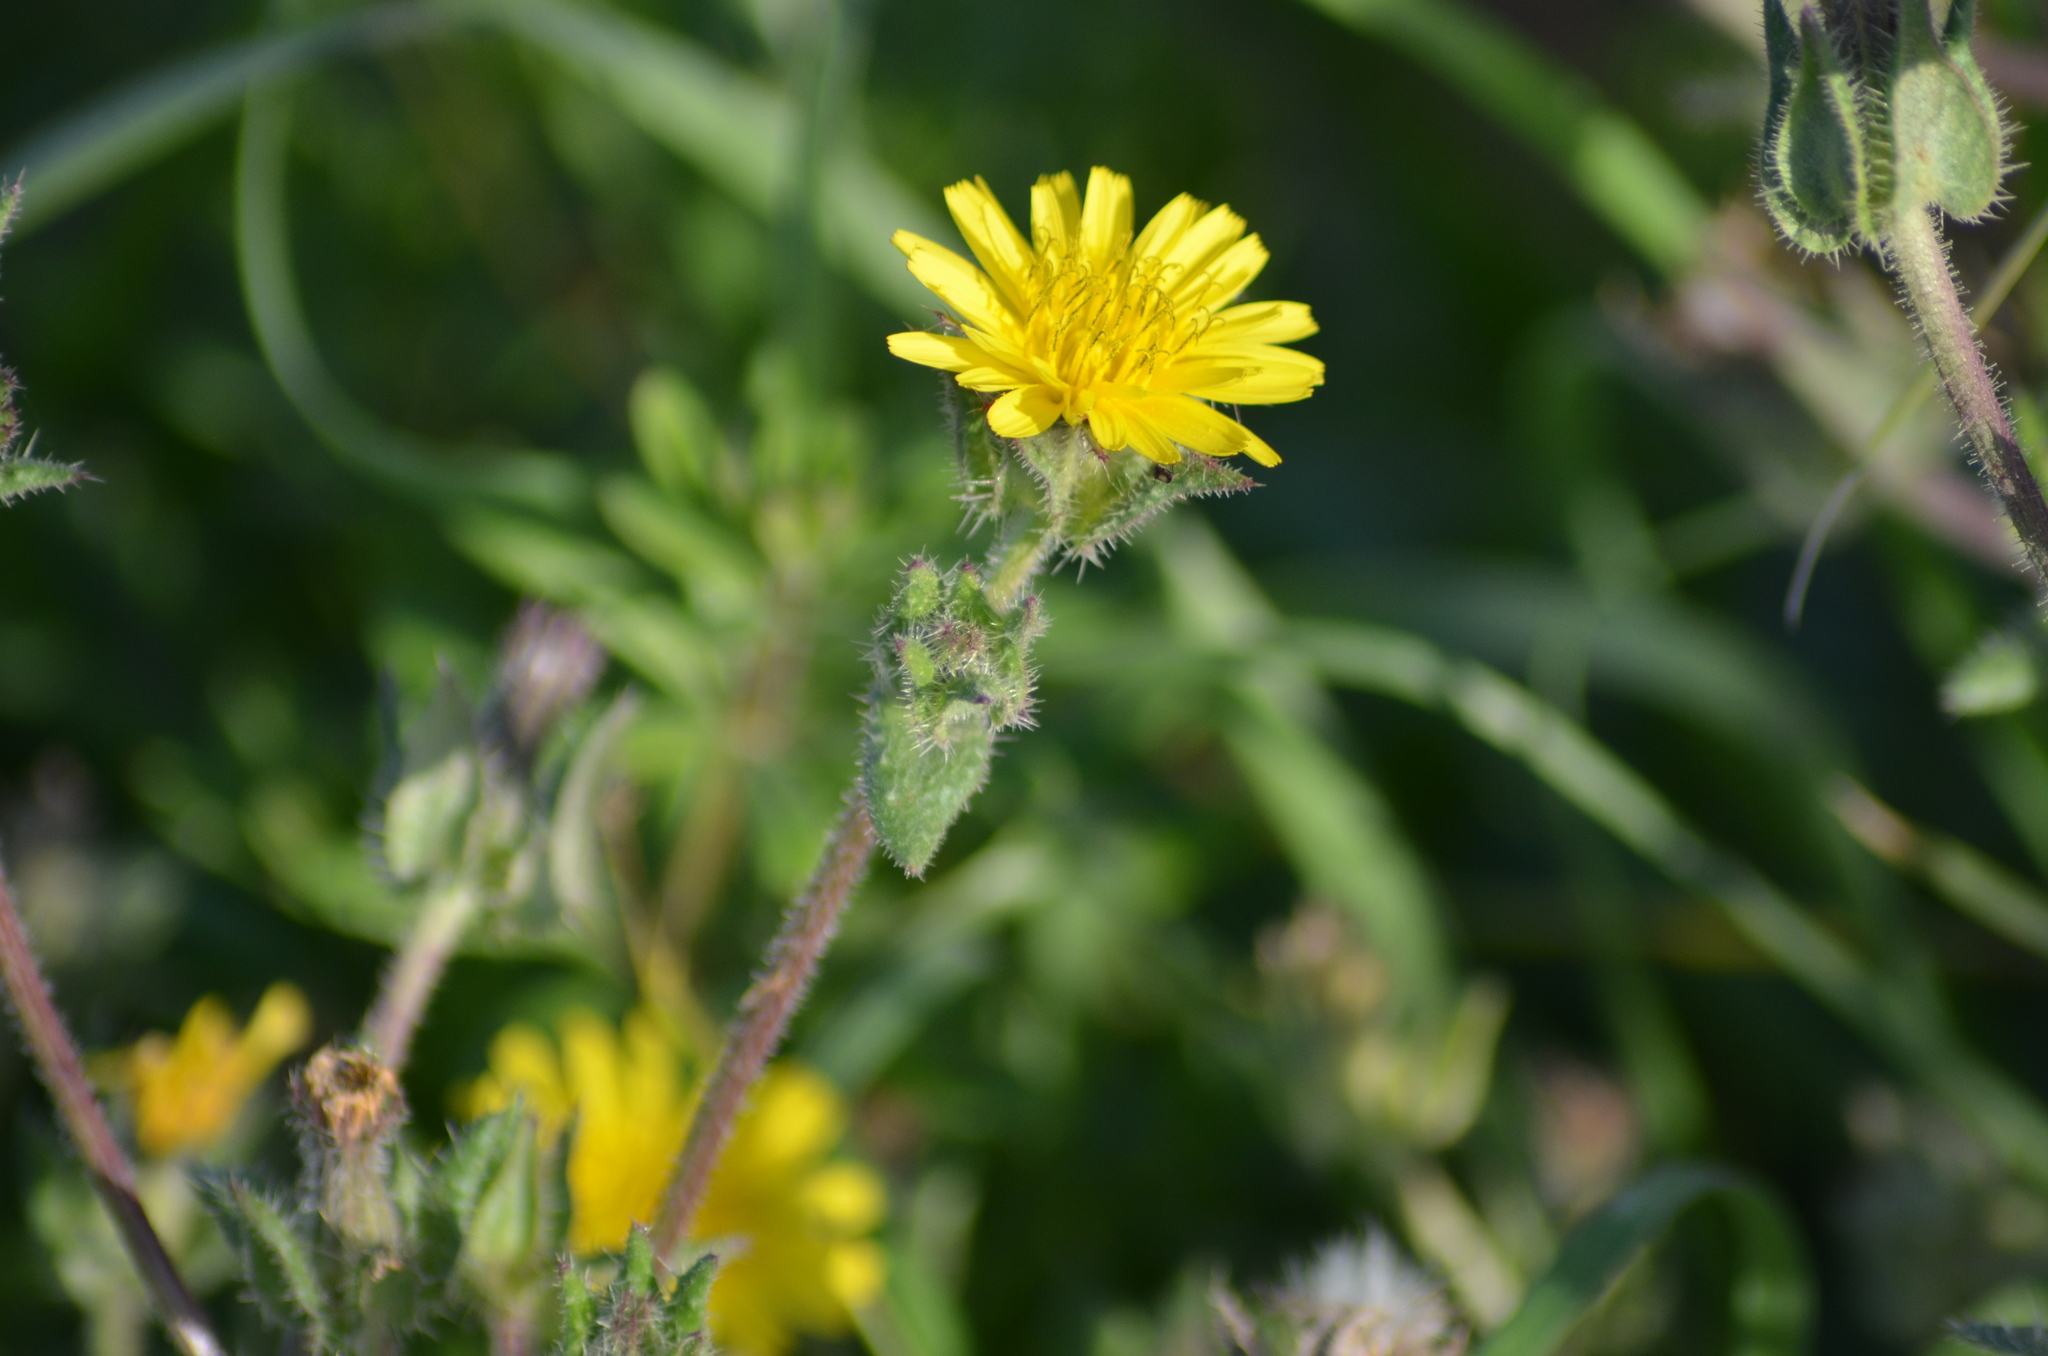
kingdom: Plantae
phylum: Tracheophyta
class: Magnoliopsida
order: Asterales
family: Asteraceae
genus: Helminthotheca
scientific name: Helminthotheca echioides
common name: Ox-tongue
